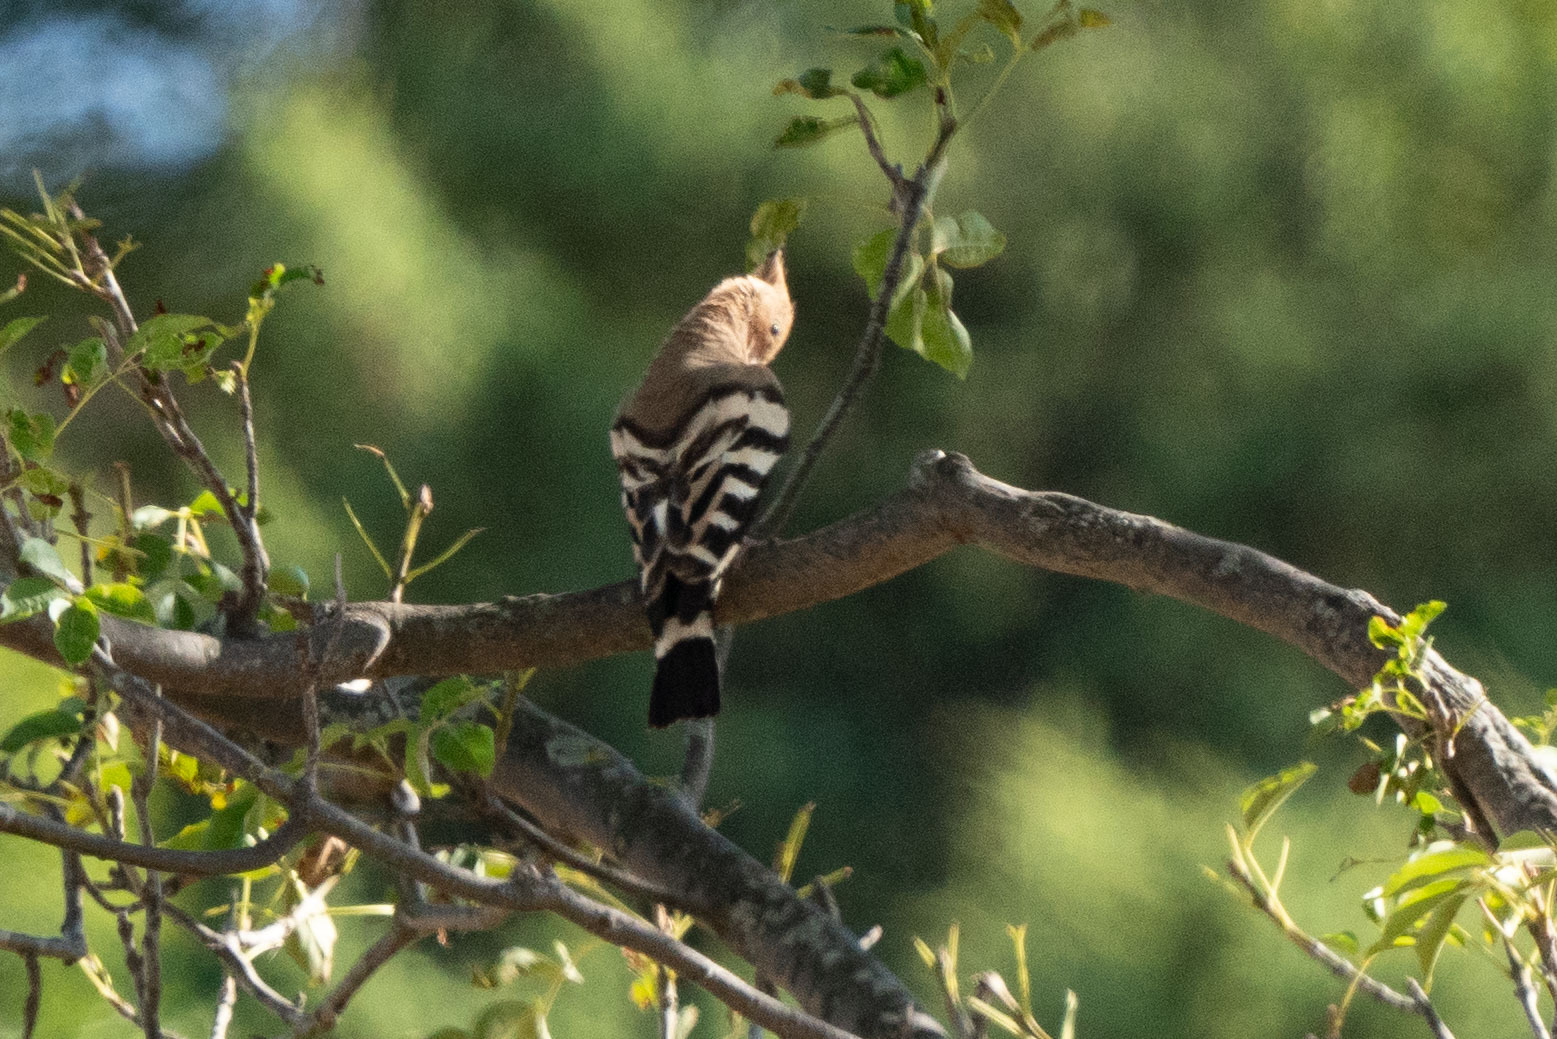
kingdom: Animalia
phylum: Chordata
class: Aves
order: Bucerotiformes
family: Upupidae
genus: Upupa
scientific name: Upupa epops
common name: Eurasian hoopoe
